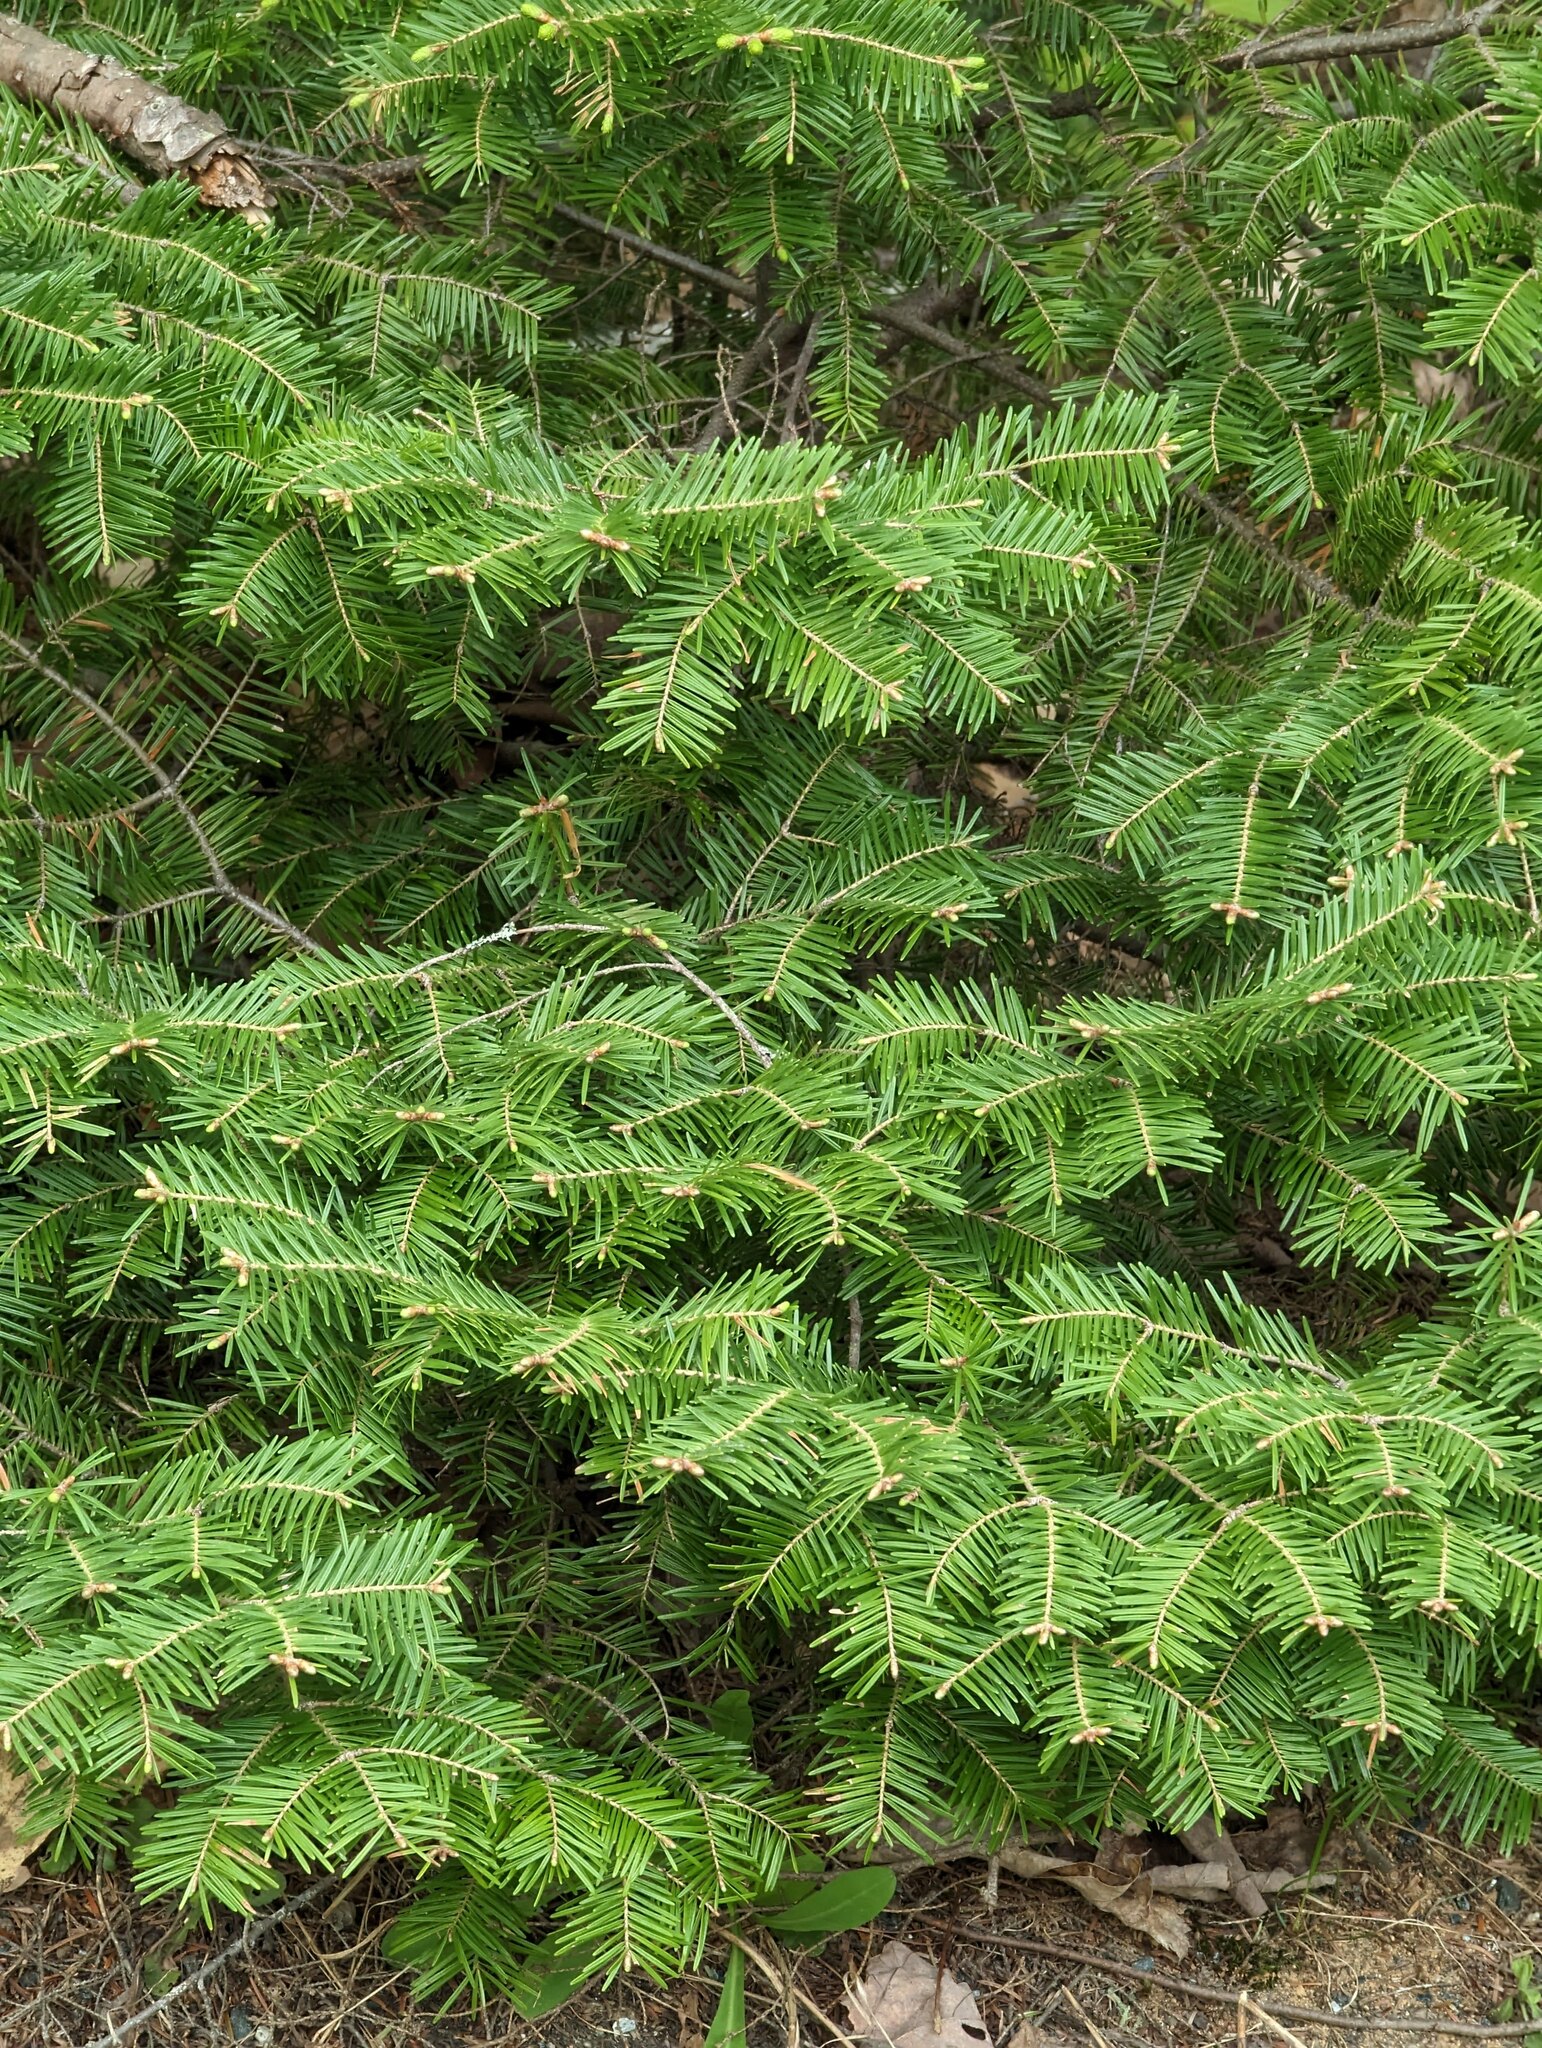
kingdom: Plantae
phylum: Tracheophyta
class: Pinopsida
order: Pinales
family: Pinaceae
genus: Abies
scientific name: Abies balsamea
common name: Balsam fir
